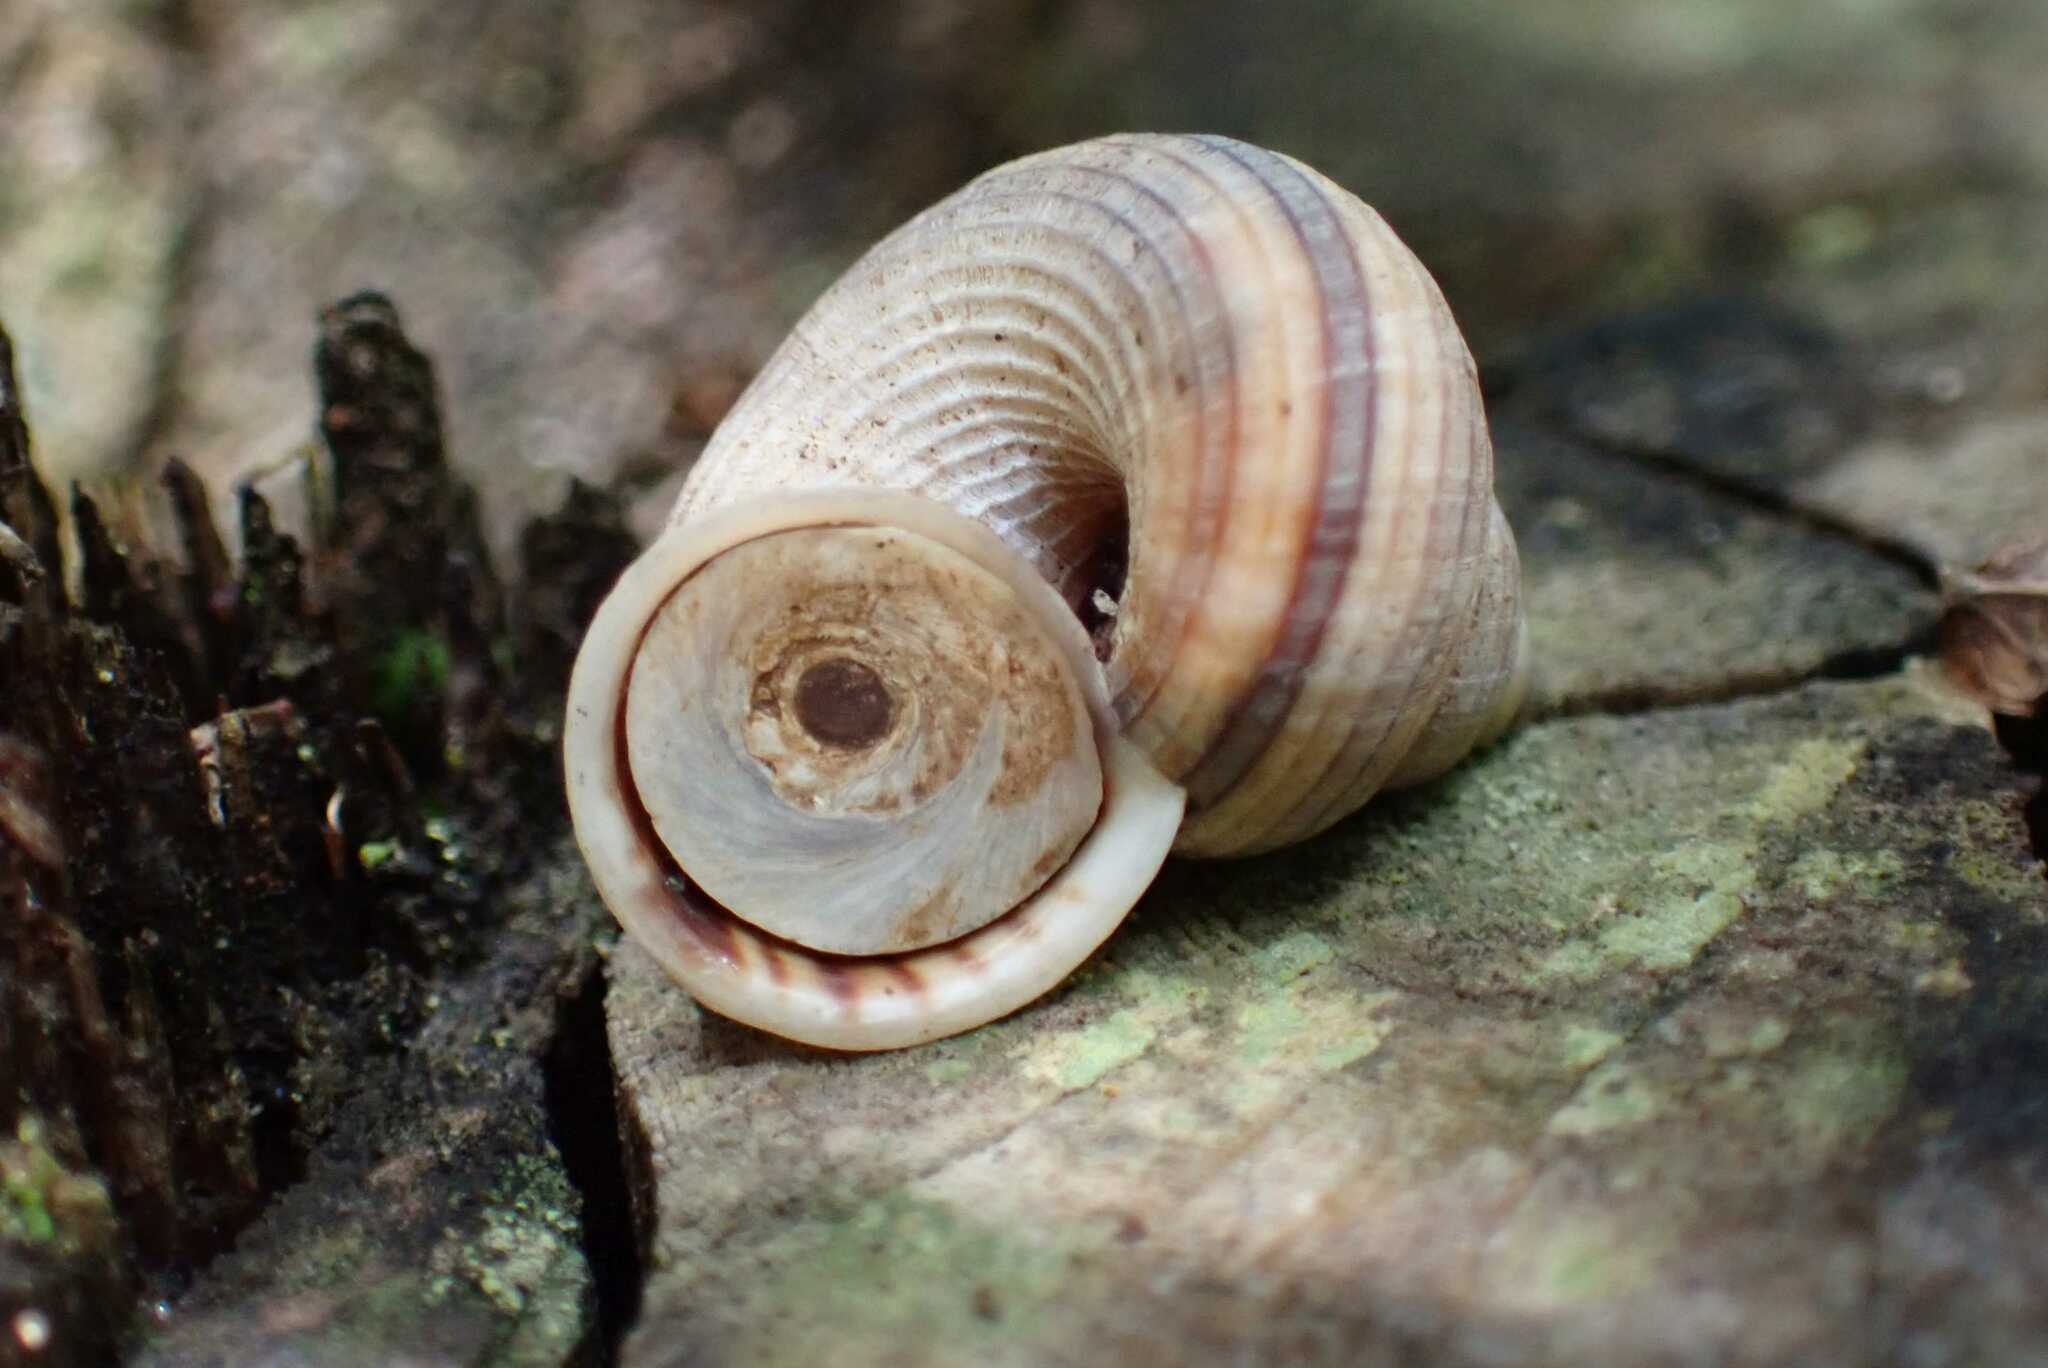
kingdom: Animalia
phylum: Mollusca
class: Gastropoda
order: Littorinimorpha
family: Pomatiidae
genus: Tropidophora
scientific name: Tropidophora insularis
